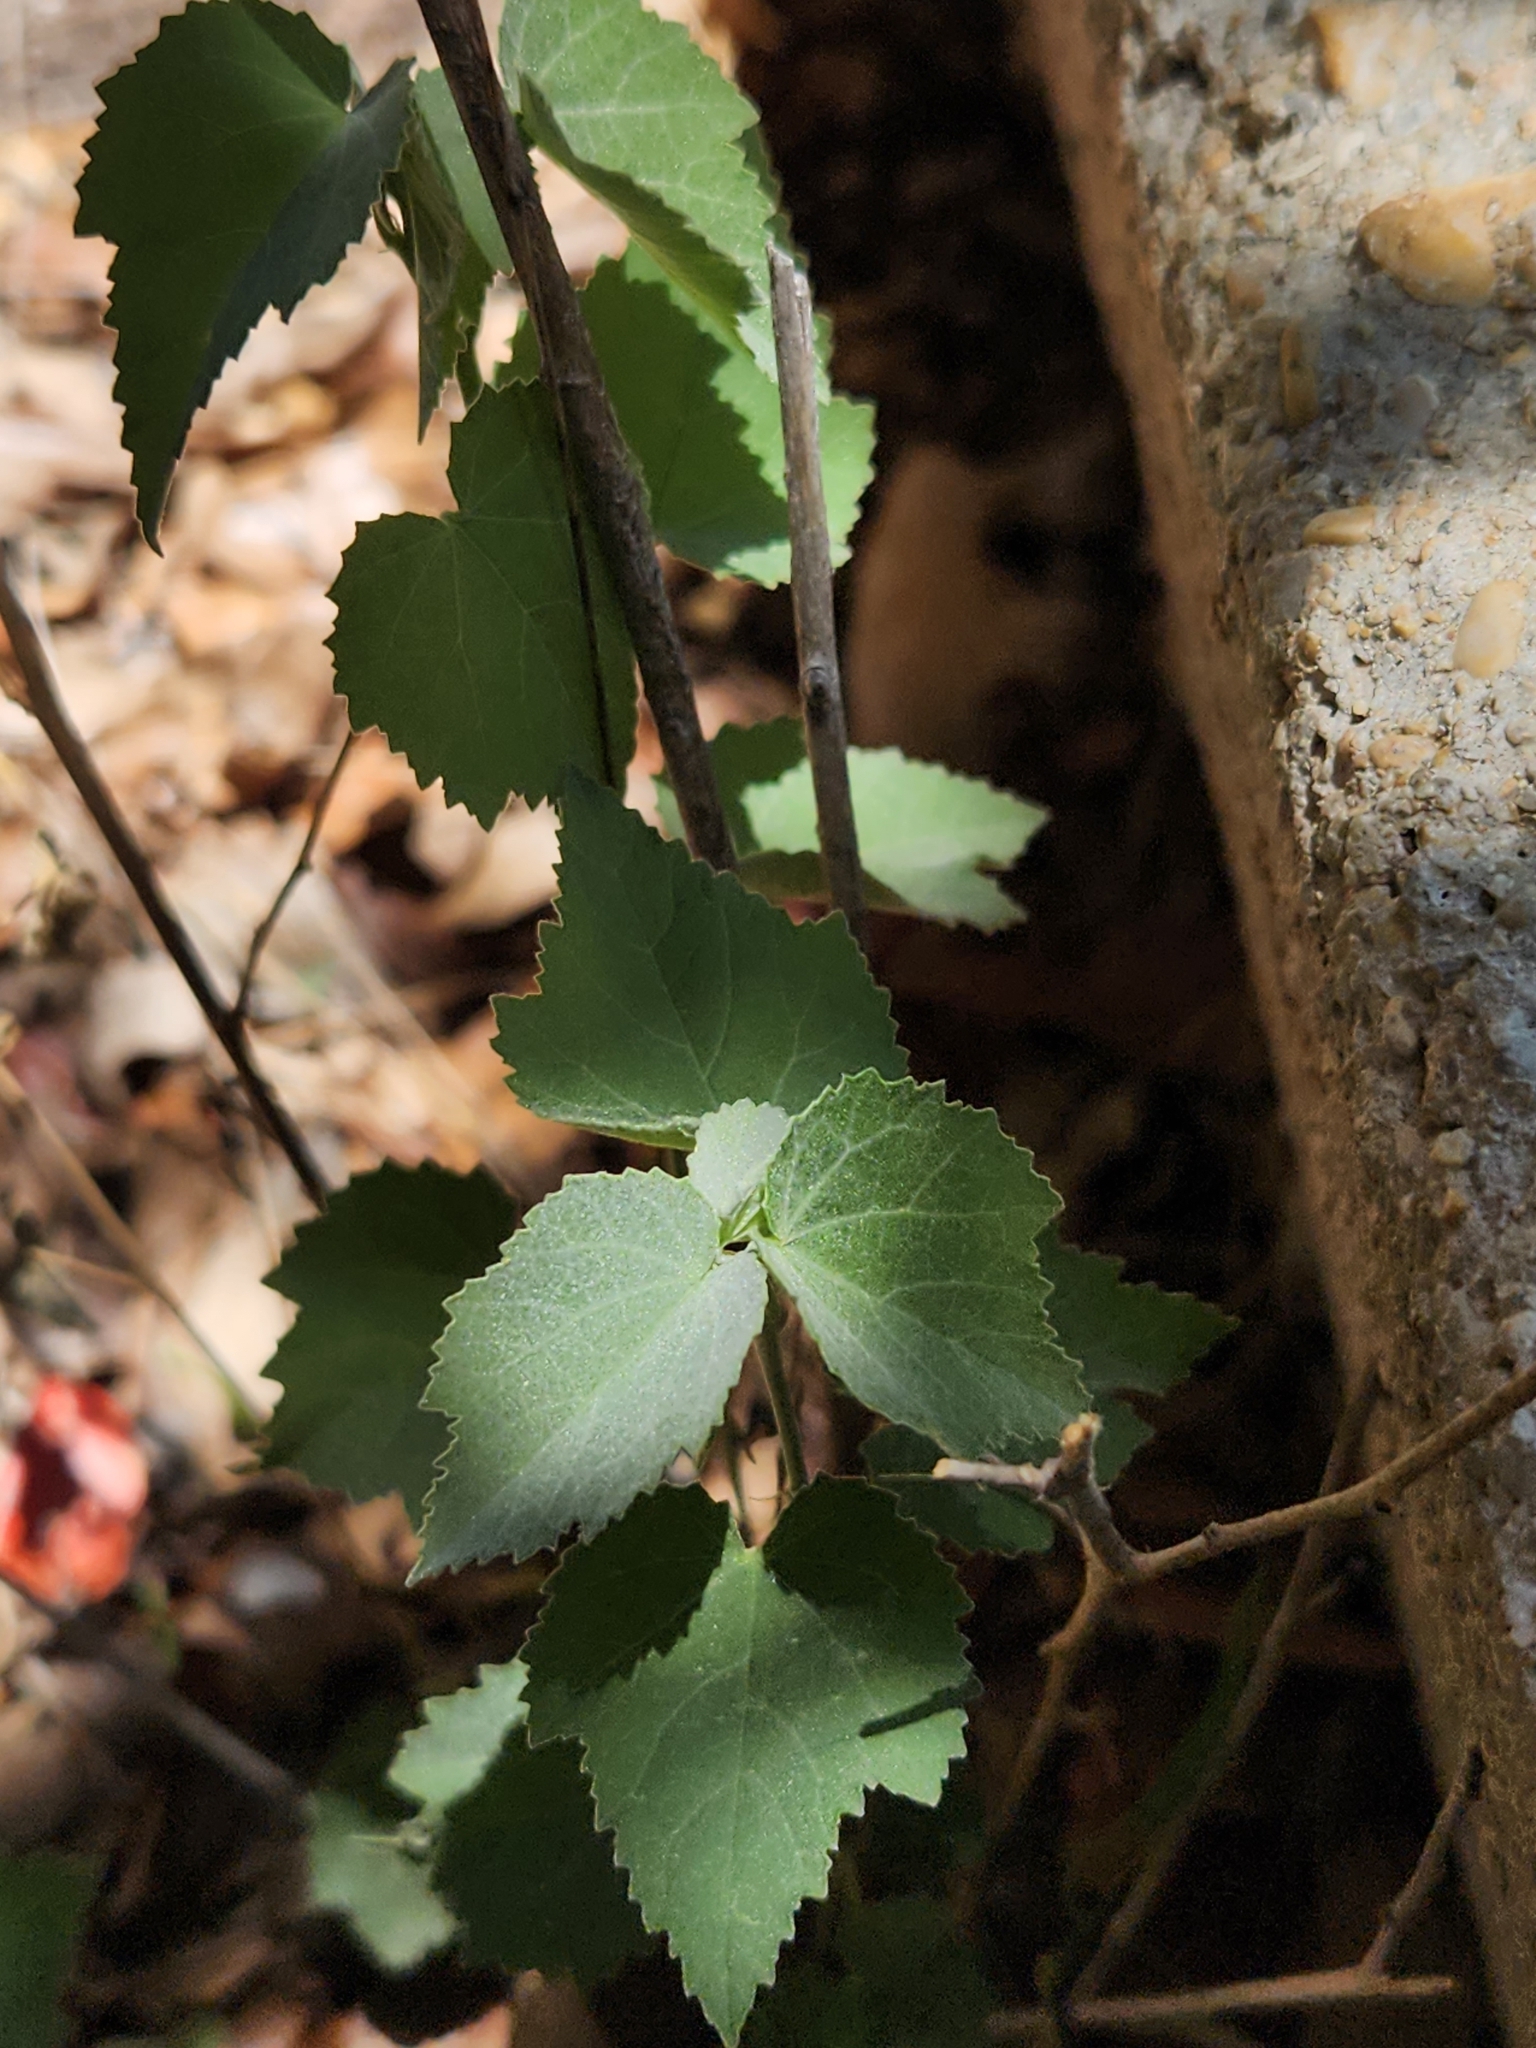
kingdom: Plantae
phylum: Tracheophyta
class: Magnoliopsida
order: Malvales
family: Malvaceae
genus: Abutilon
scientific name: Abutilon fruticosum
